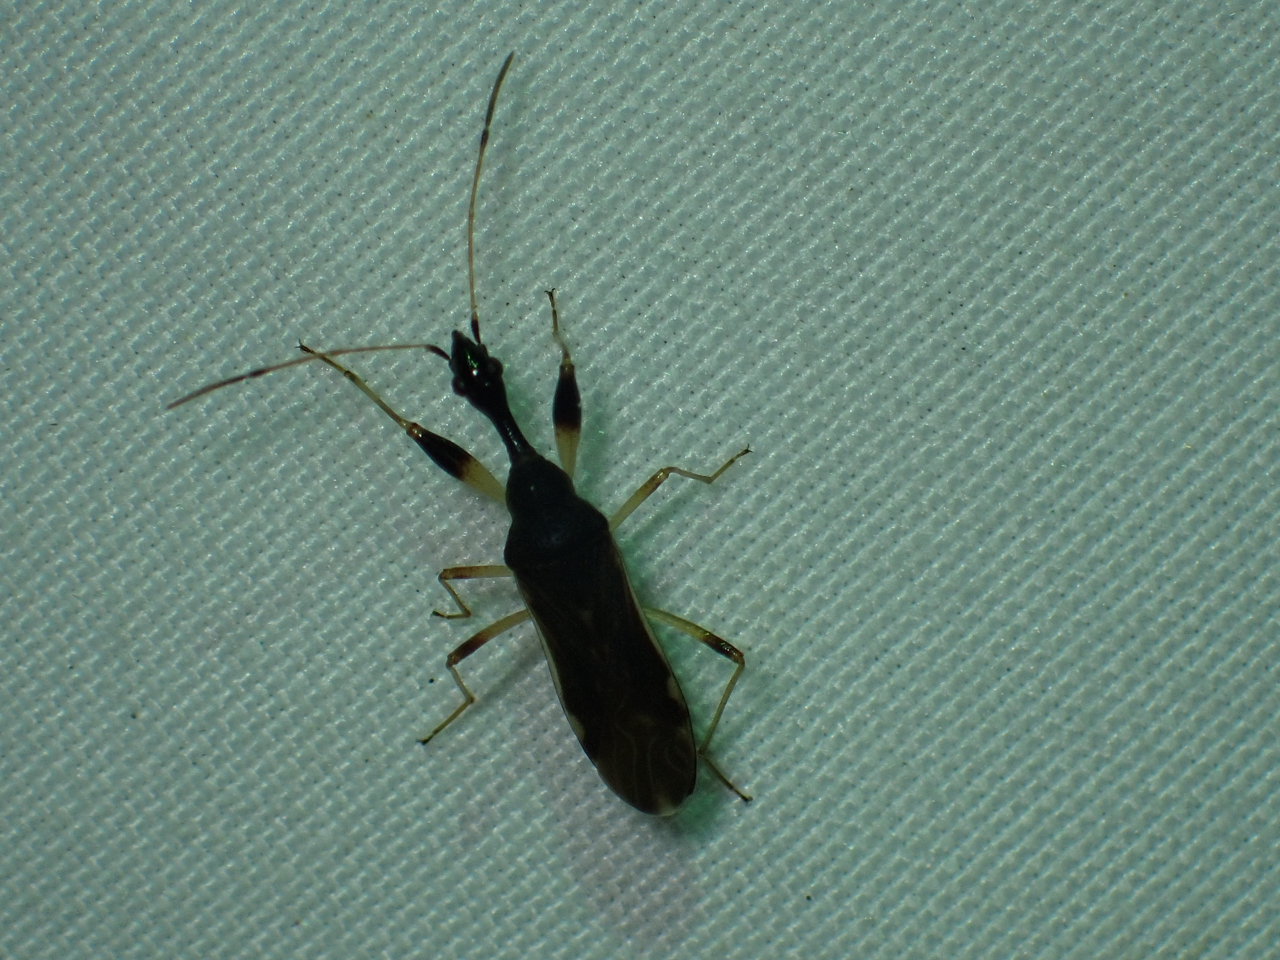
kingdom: Animalia
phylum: Arthropoda
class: Insecta
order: Hemiptera
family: Rhyparochromidae
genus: Myodocha
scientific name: Myodocha serripes
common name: Long-necked seed bug
